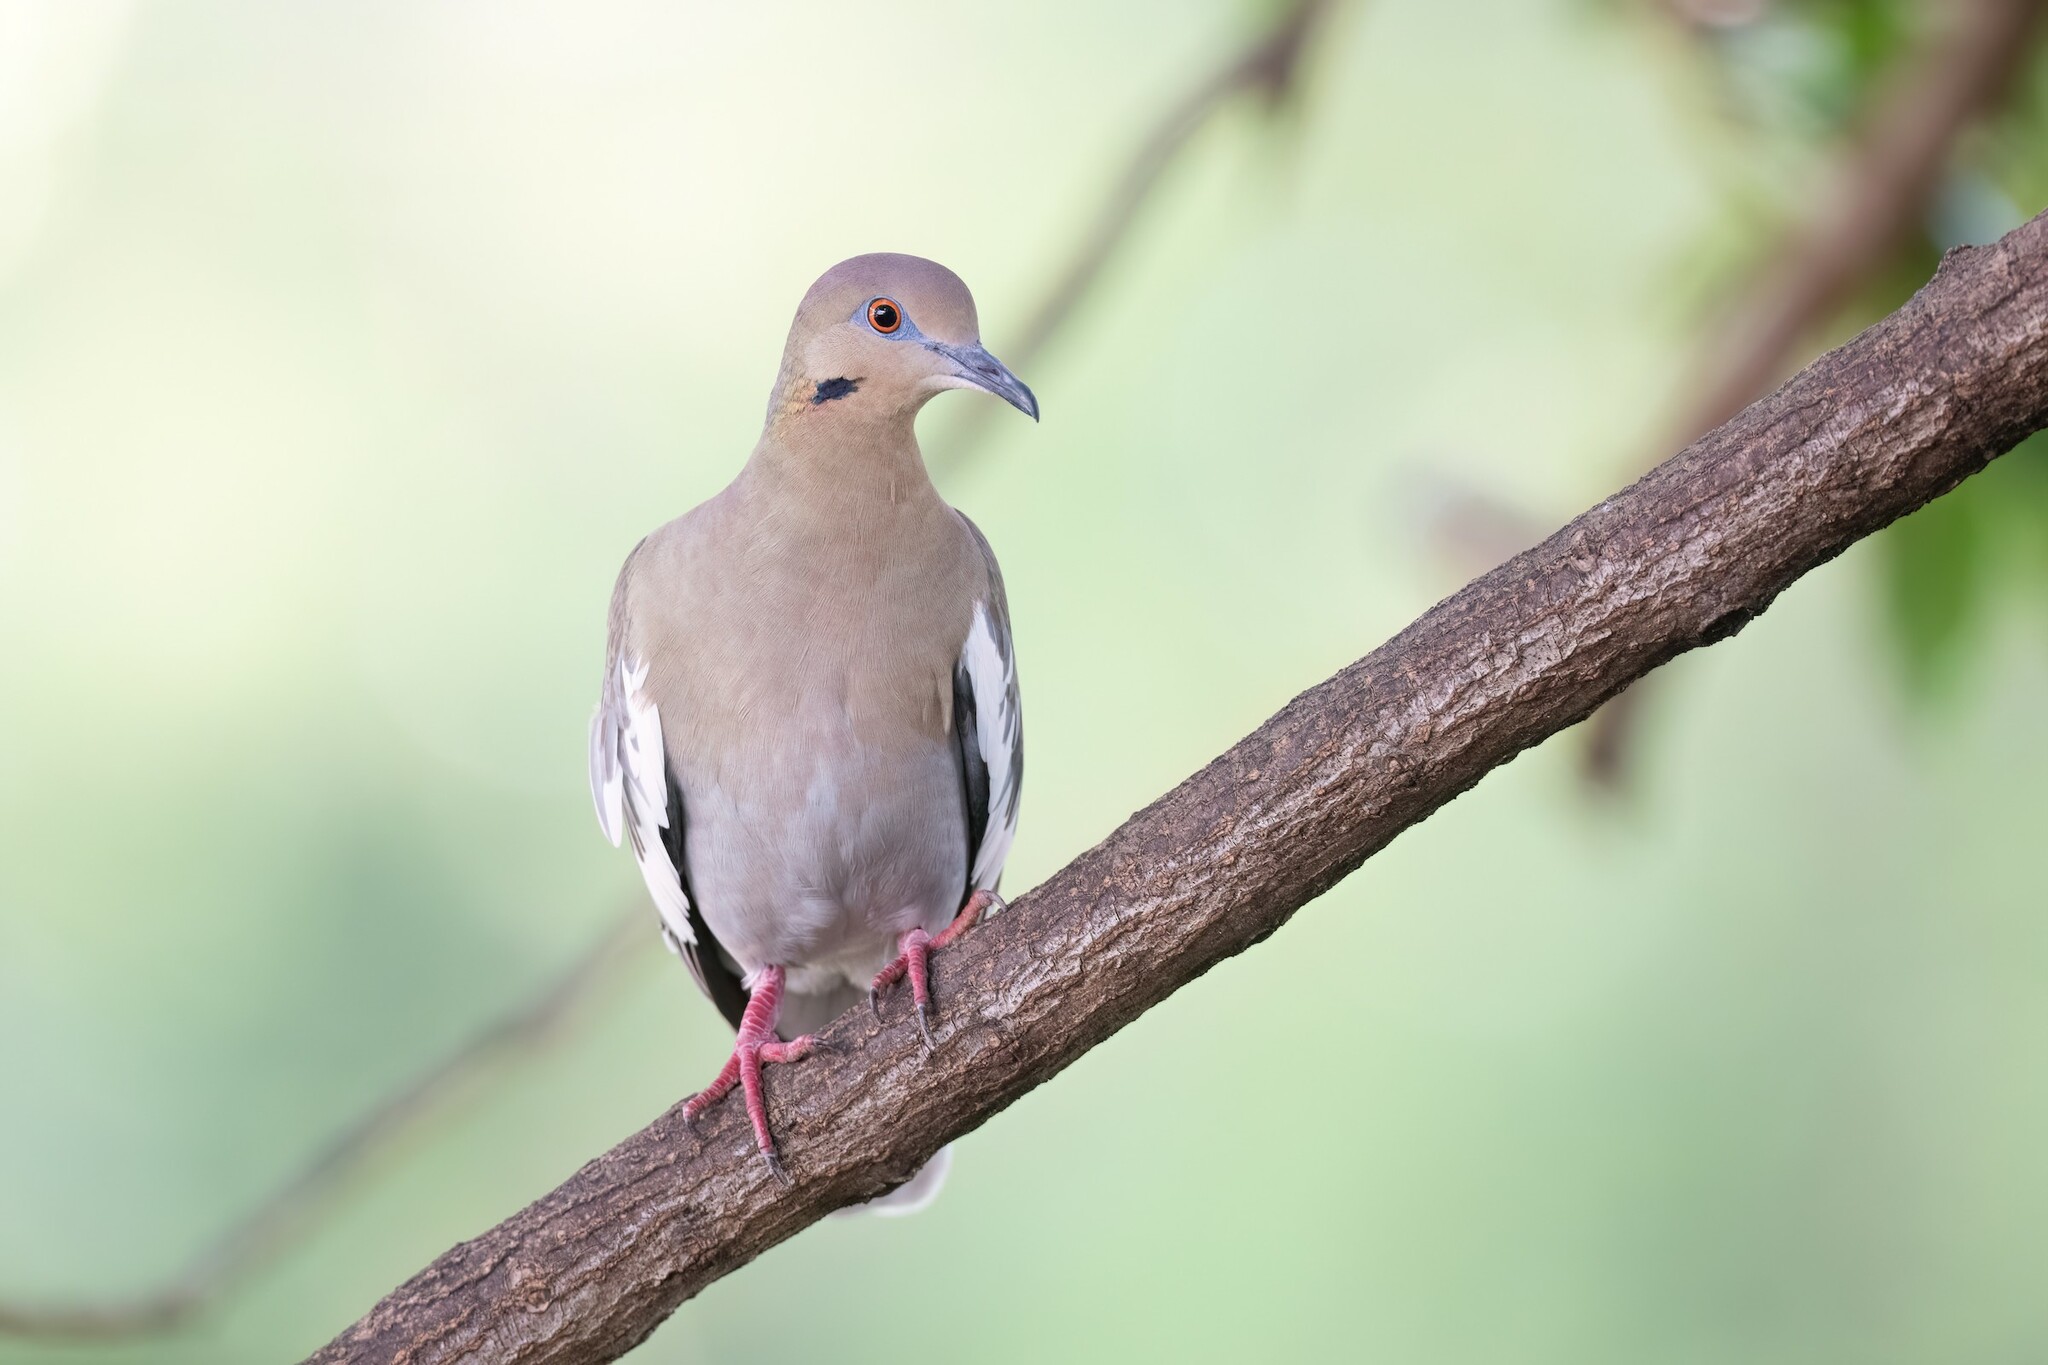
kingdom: Animalia
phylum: Chordata
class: Aves
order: Columbiformes
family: Columbidae
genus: Zenaida
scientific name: Zenaida asiatica
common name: White-winged dove
